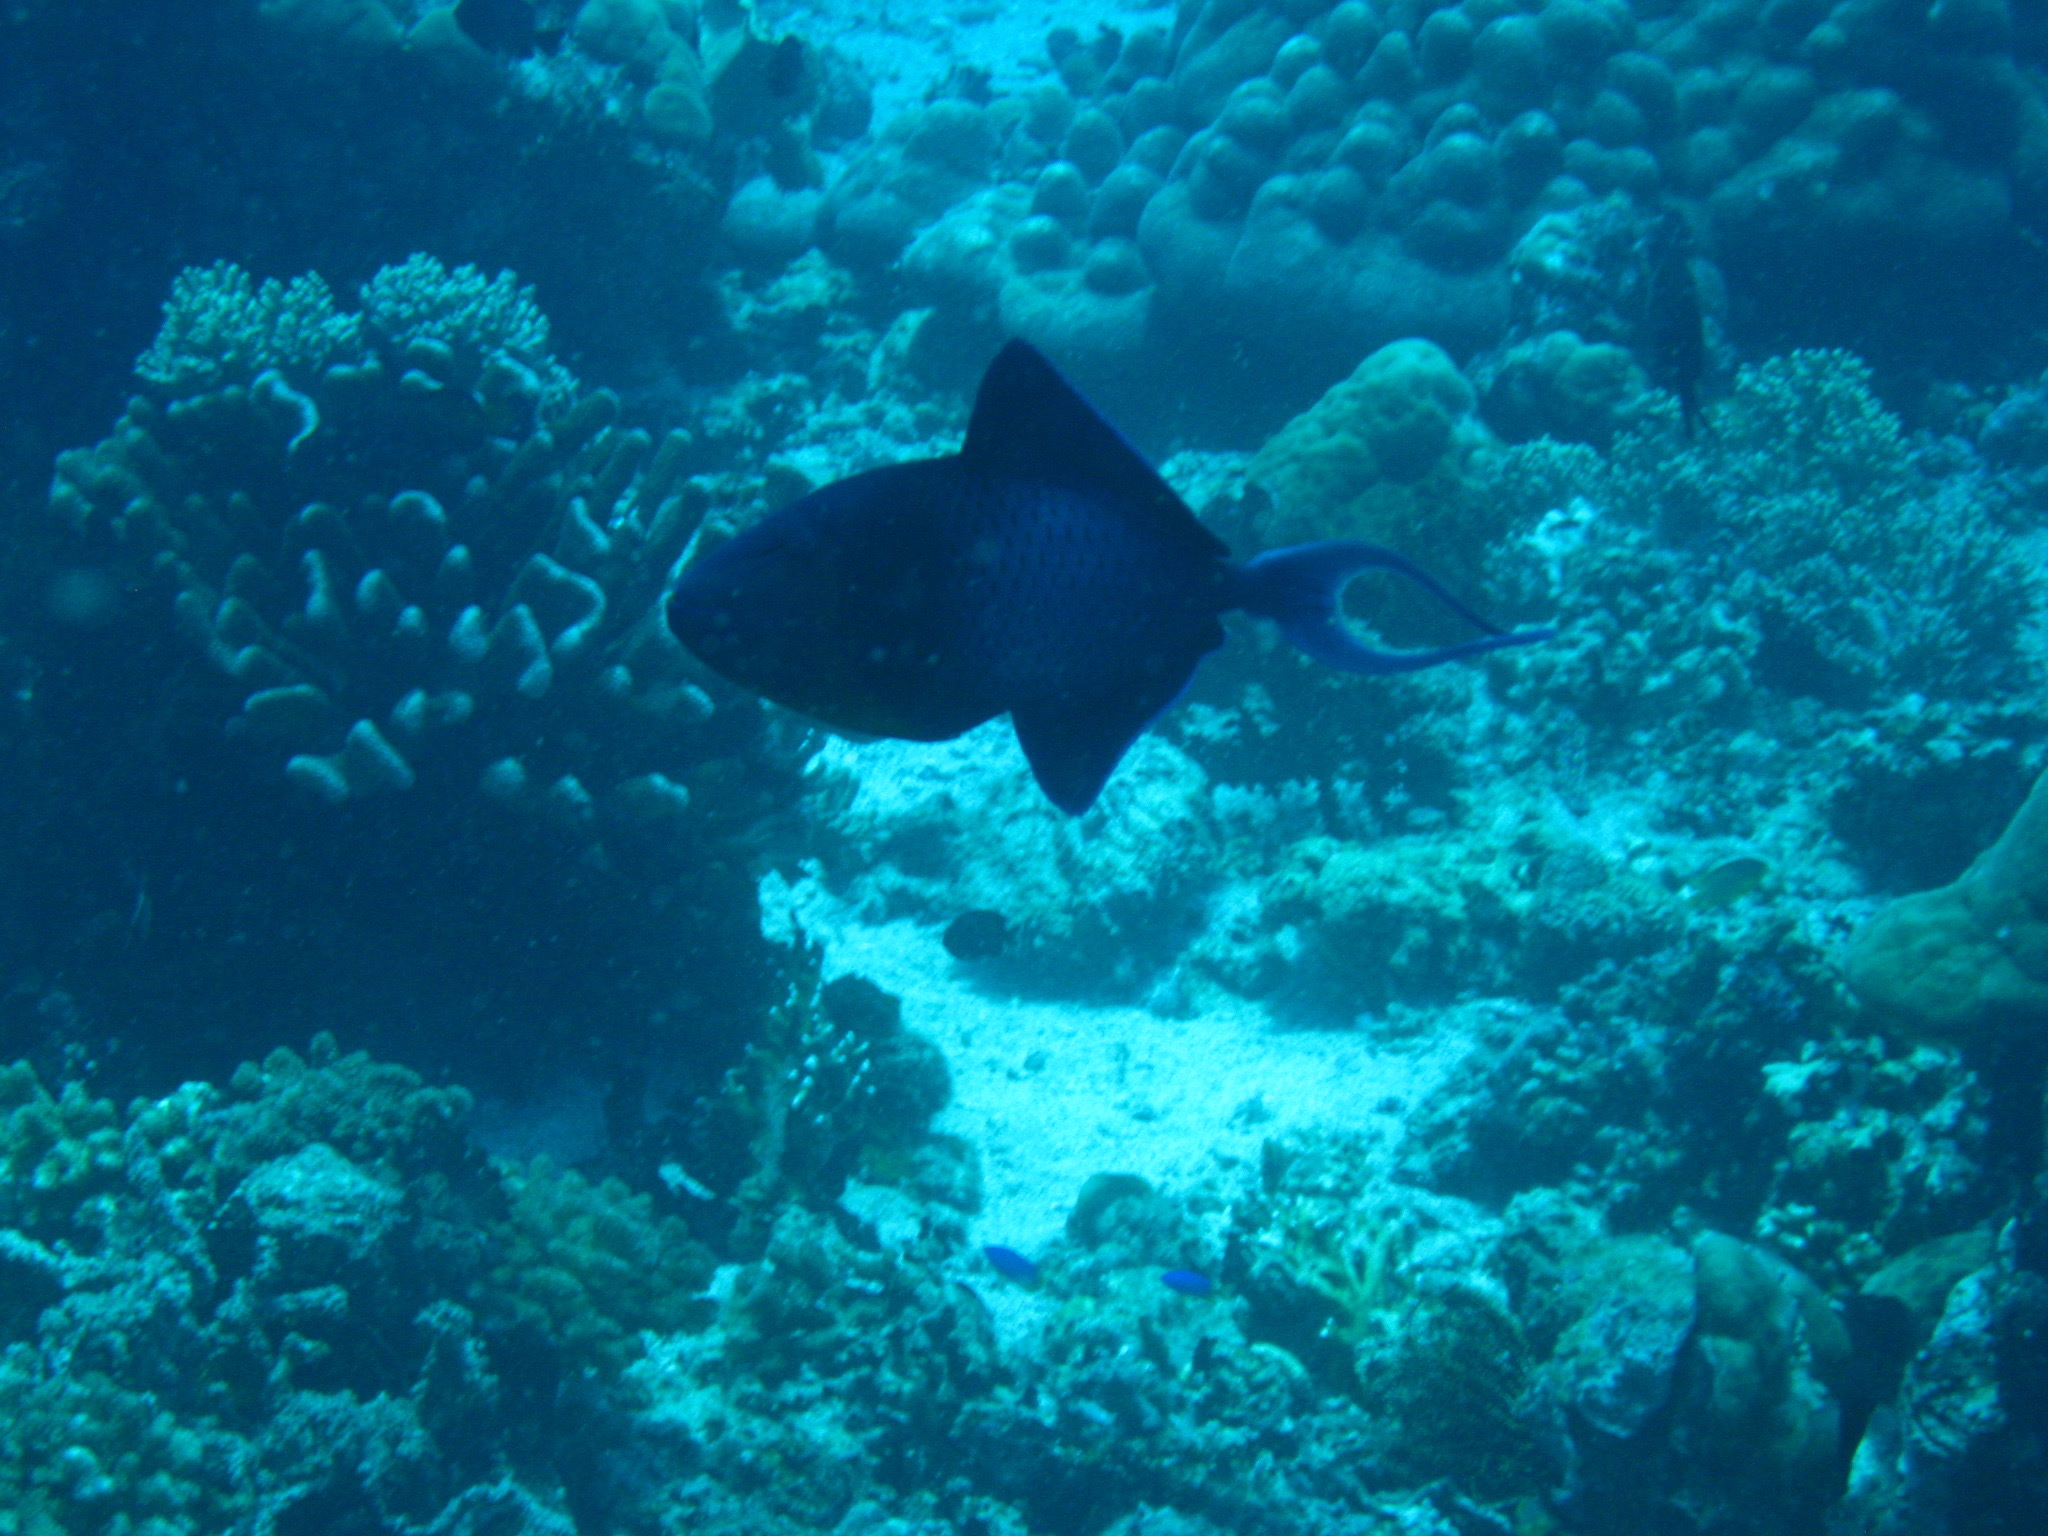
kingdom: Animalia
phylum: Chordata
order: Tetraodontiformes
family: Balistidae
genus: Odonus
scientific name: Odonus niger
